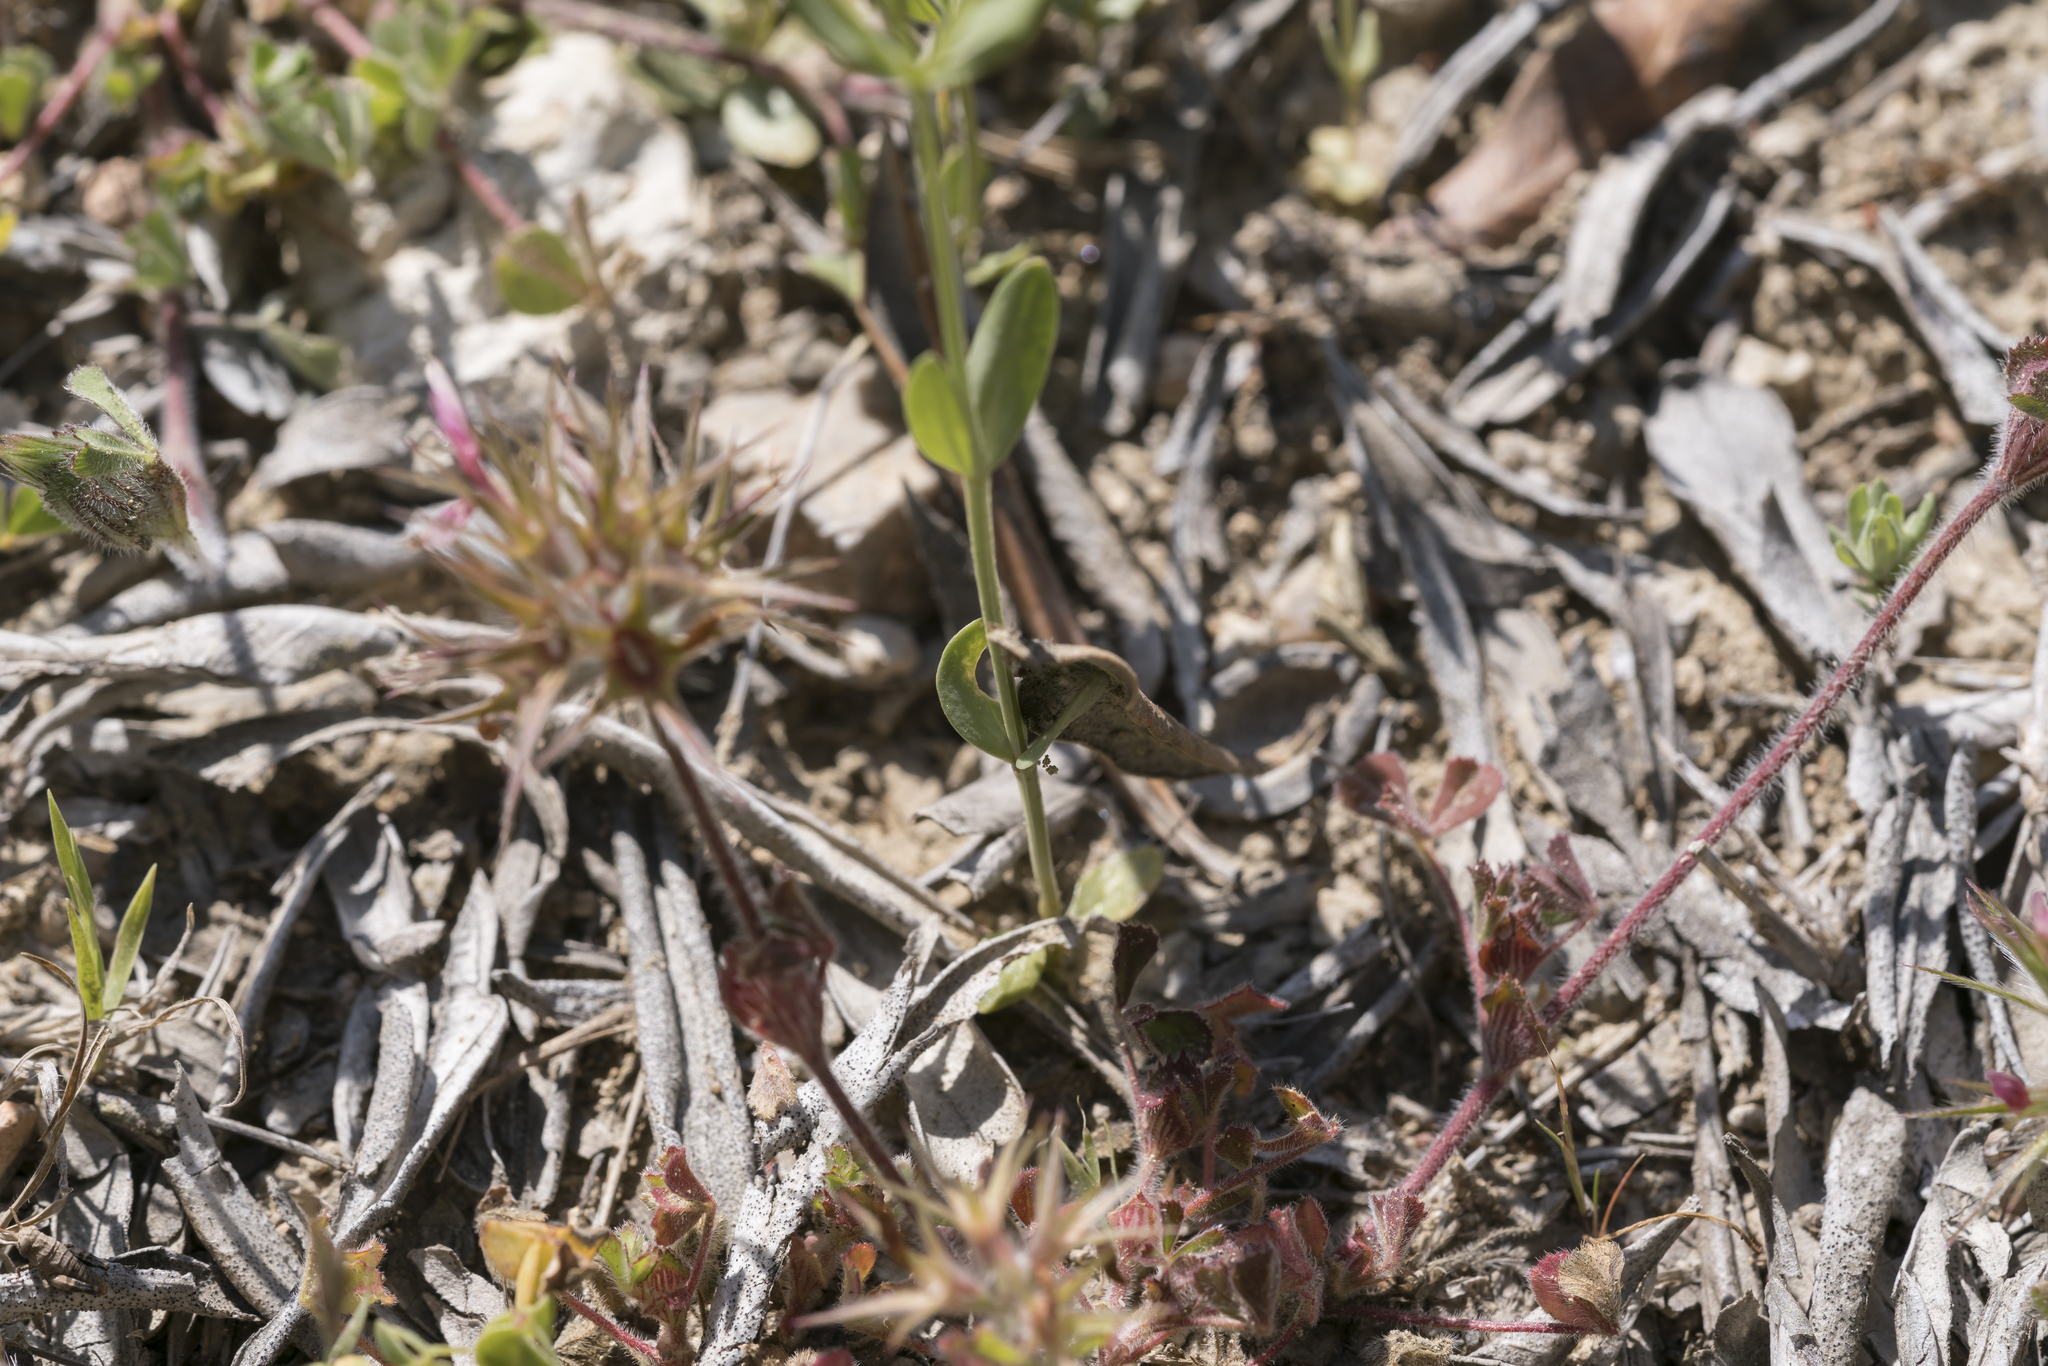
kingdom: Plantae
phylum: Tracheophyta
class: Magnoliopsida
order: Gentianales
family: Gentianaceae
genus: Centaurium
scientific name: Centaurium pulchellum
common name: Lesser centaury
